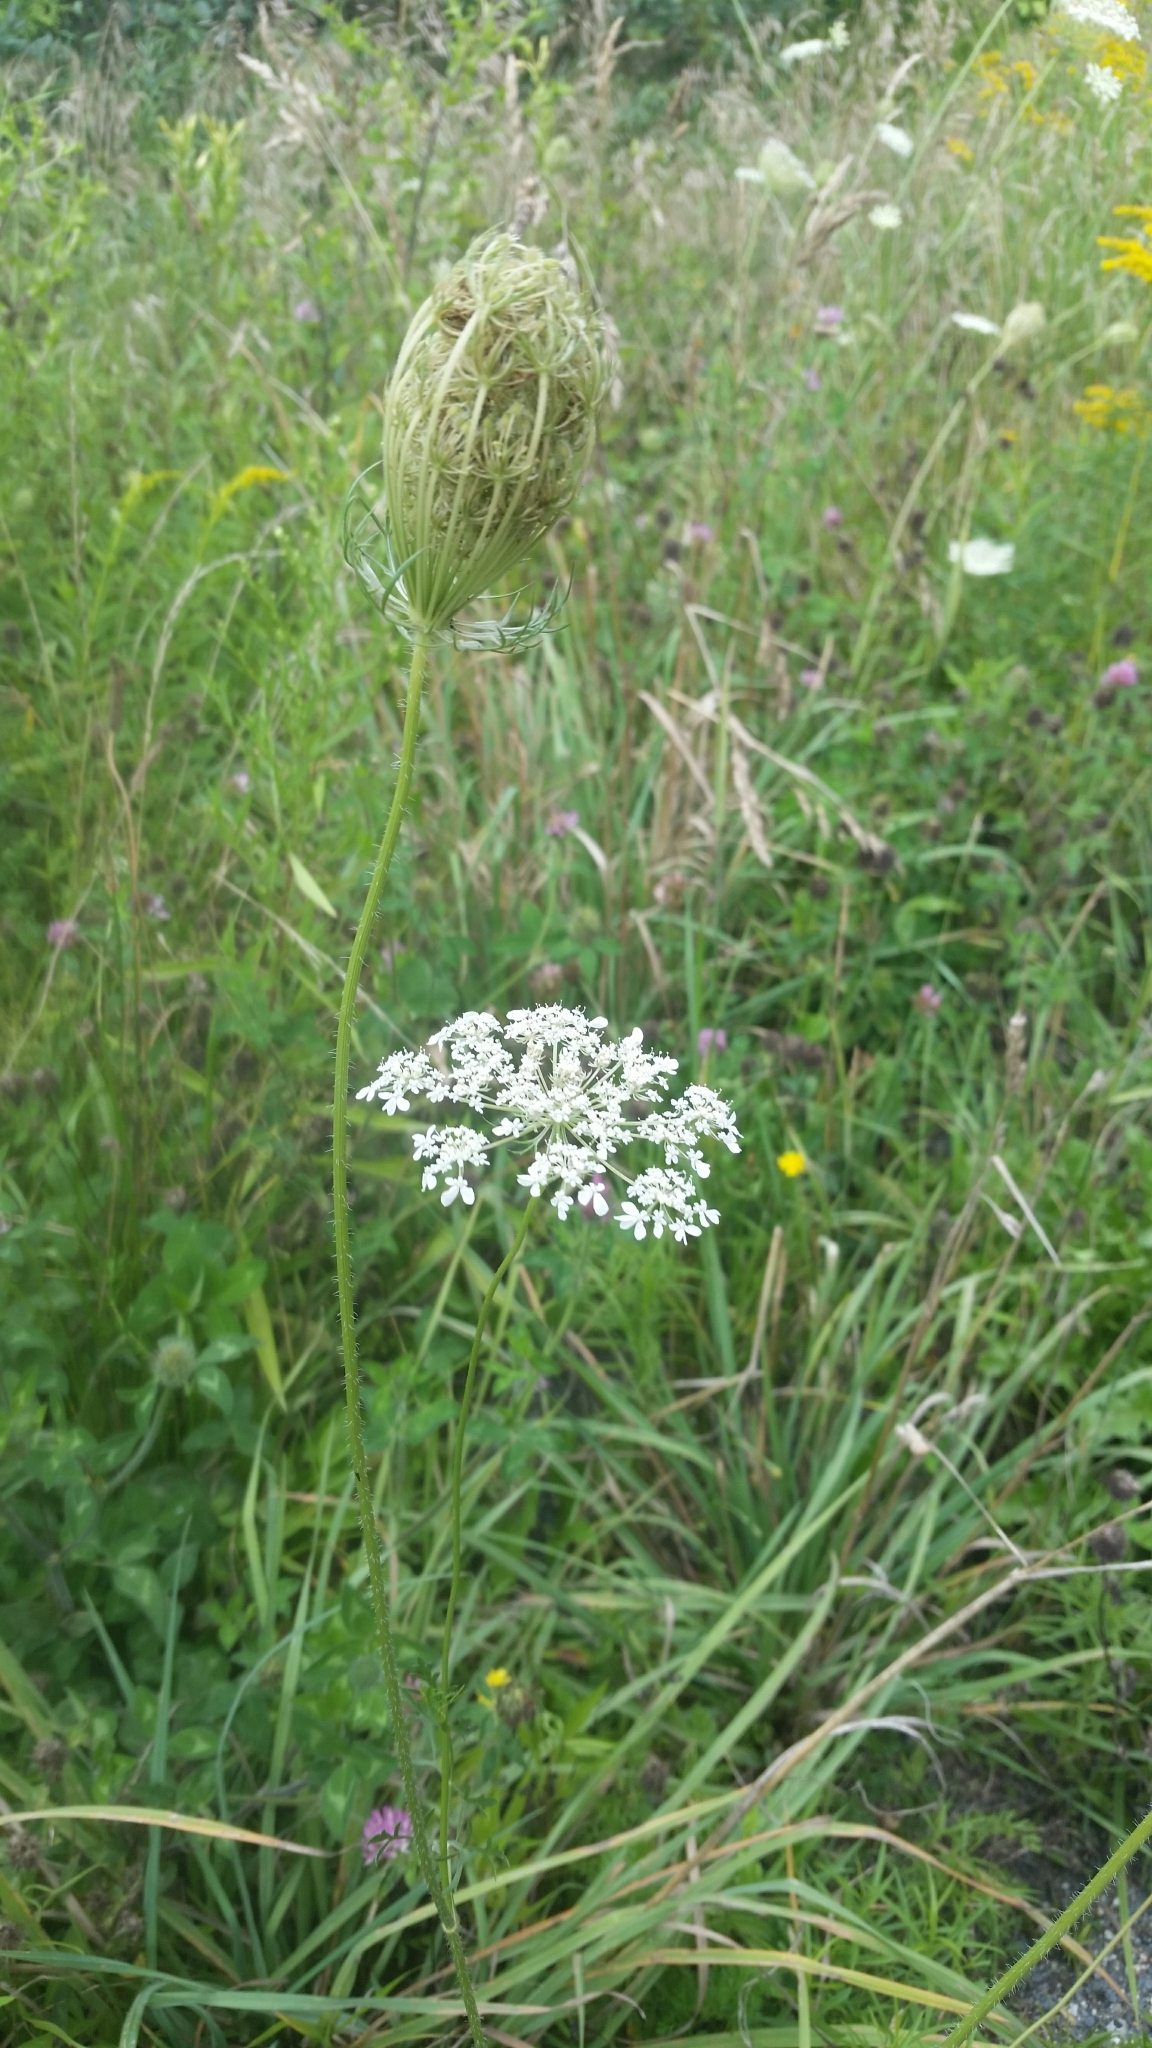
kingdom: Plantae
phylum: Tracheophyta
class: Magnoliopsida
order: Apiales
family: Apiaceae
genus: Daucus
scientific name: Daucus carota
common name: Wild carrot
